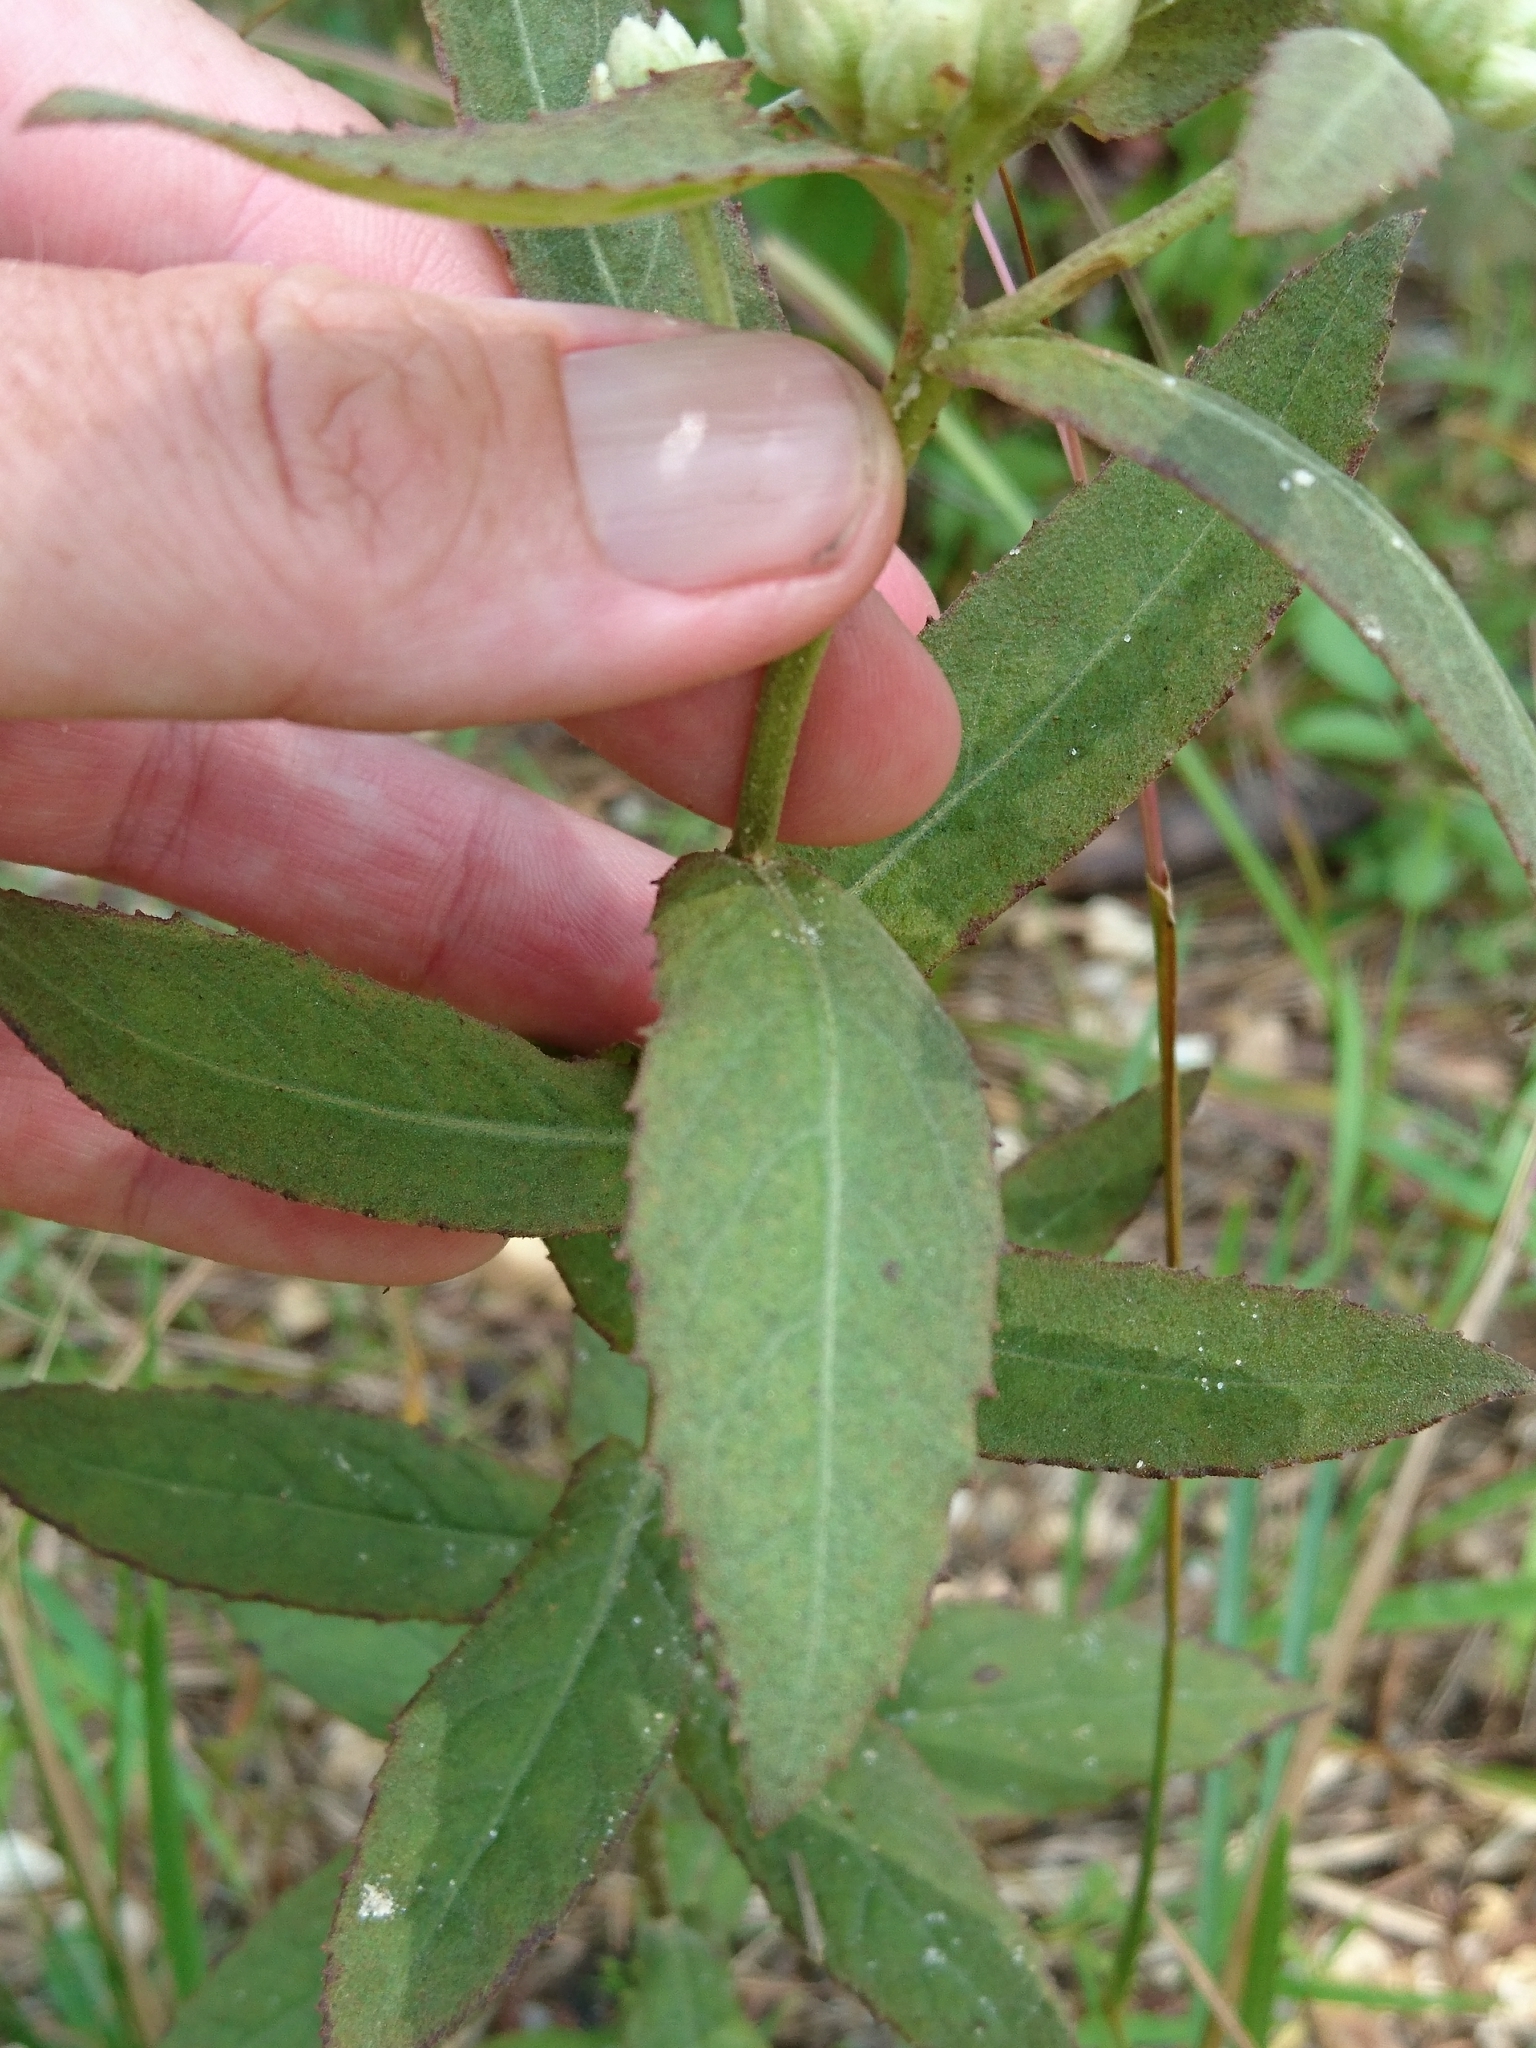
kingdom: Plantae
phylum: Tracheophyta
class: Magnoliopsida
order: Asterales
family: Asteraceae
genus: Pluchea
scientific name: Pluchea foetida
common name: Stinking camphorweed
